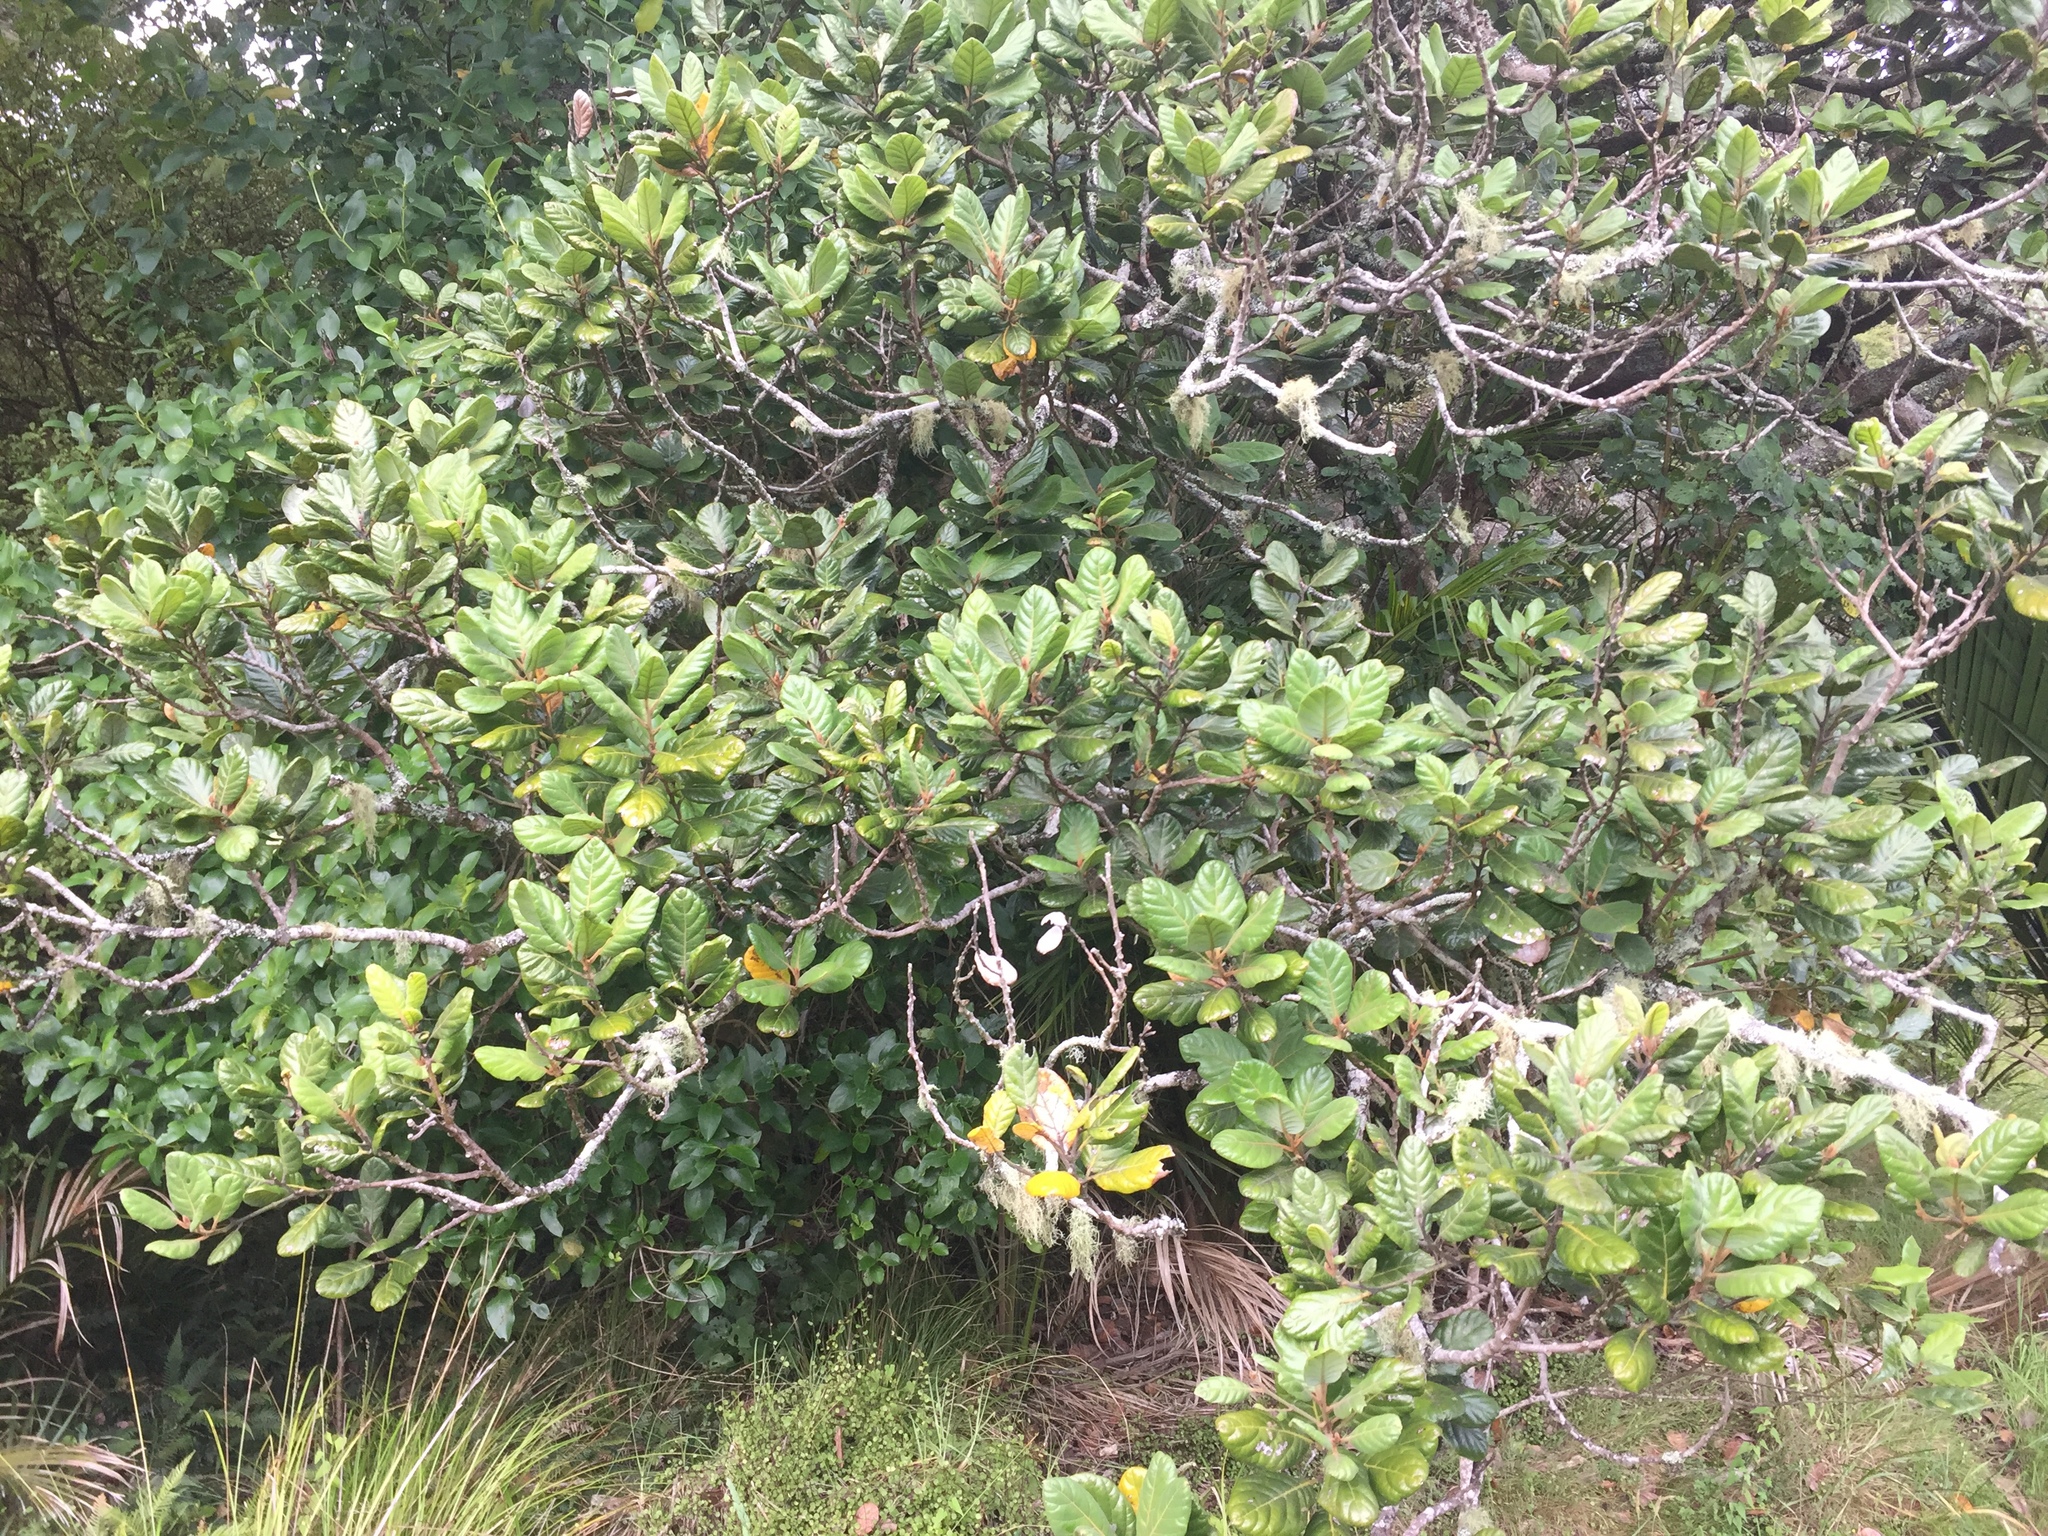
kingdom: Plantae
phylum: Tracheophyta
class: Magnoliopsida
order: Laurales
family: Lauraceae
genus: Beilschmiedia
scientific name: Beilschmiedia tarairi
